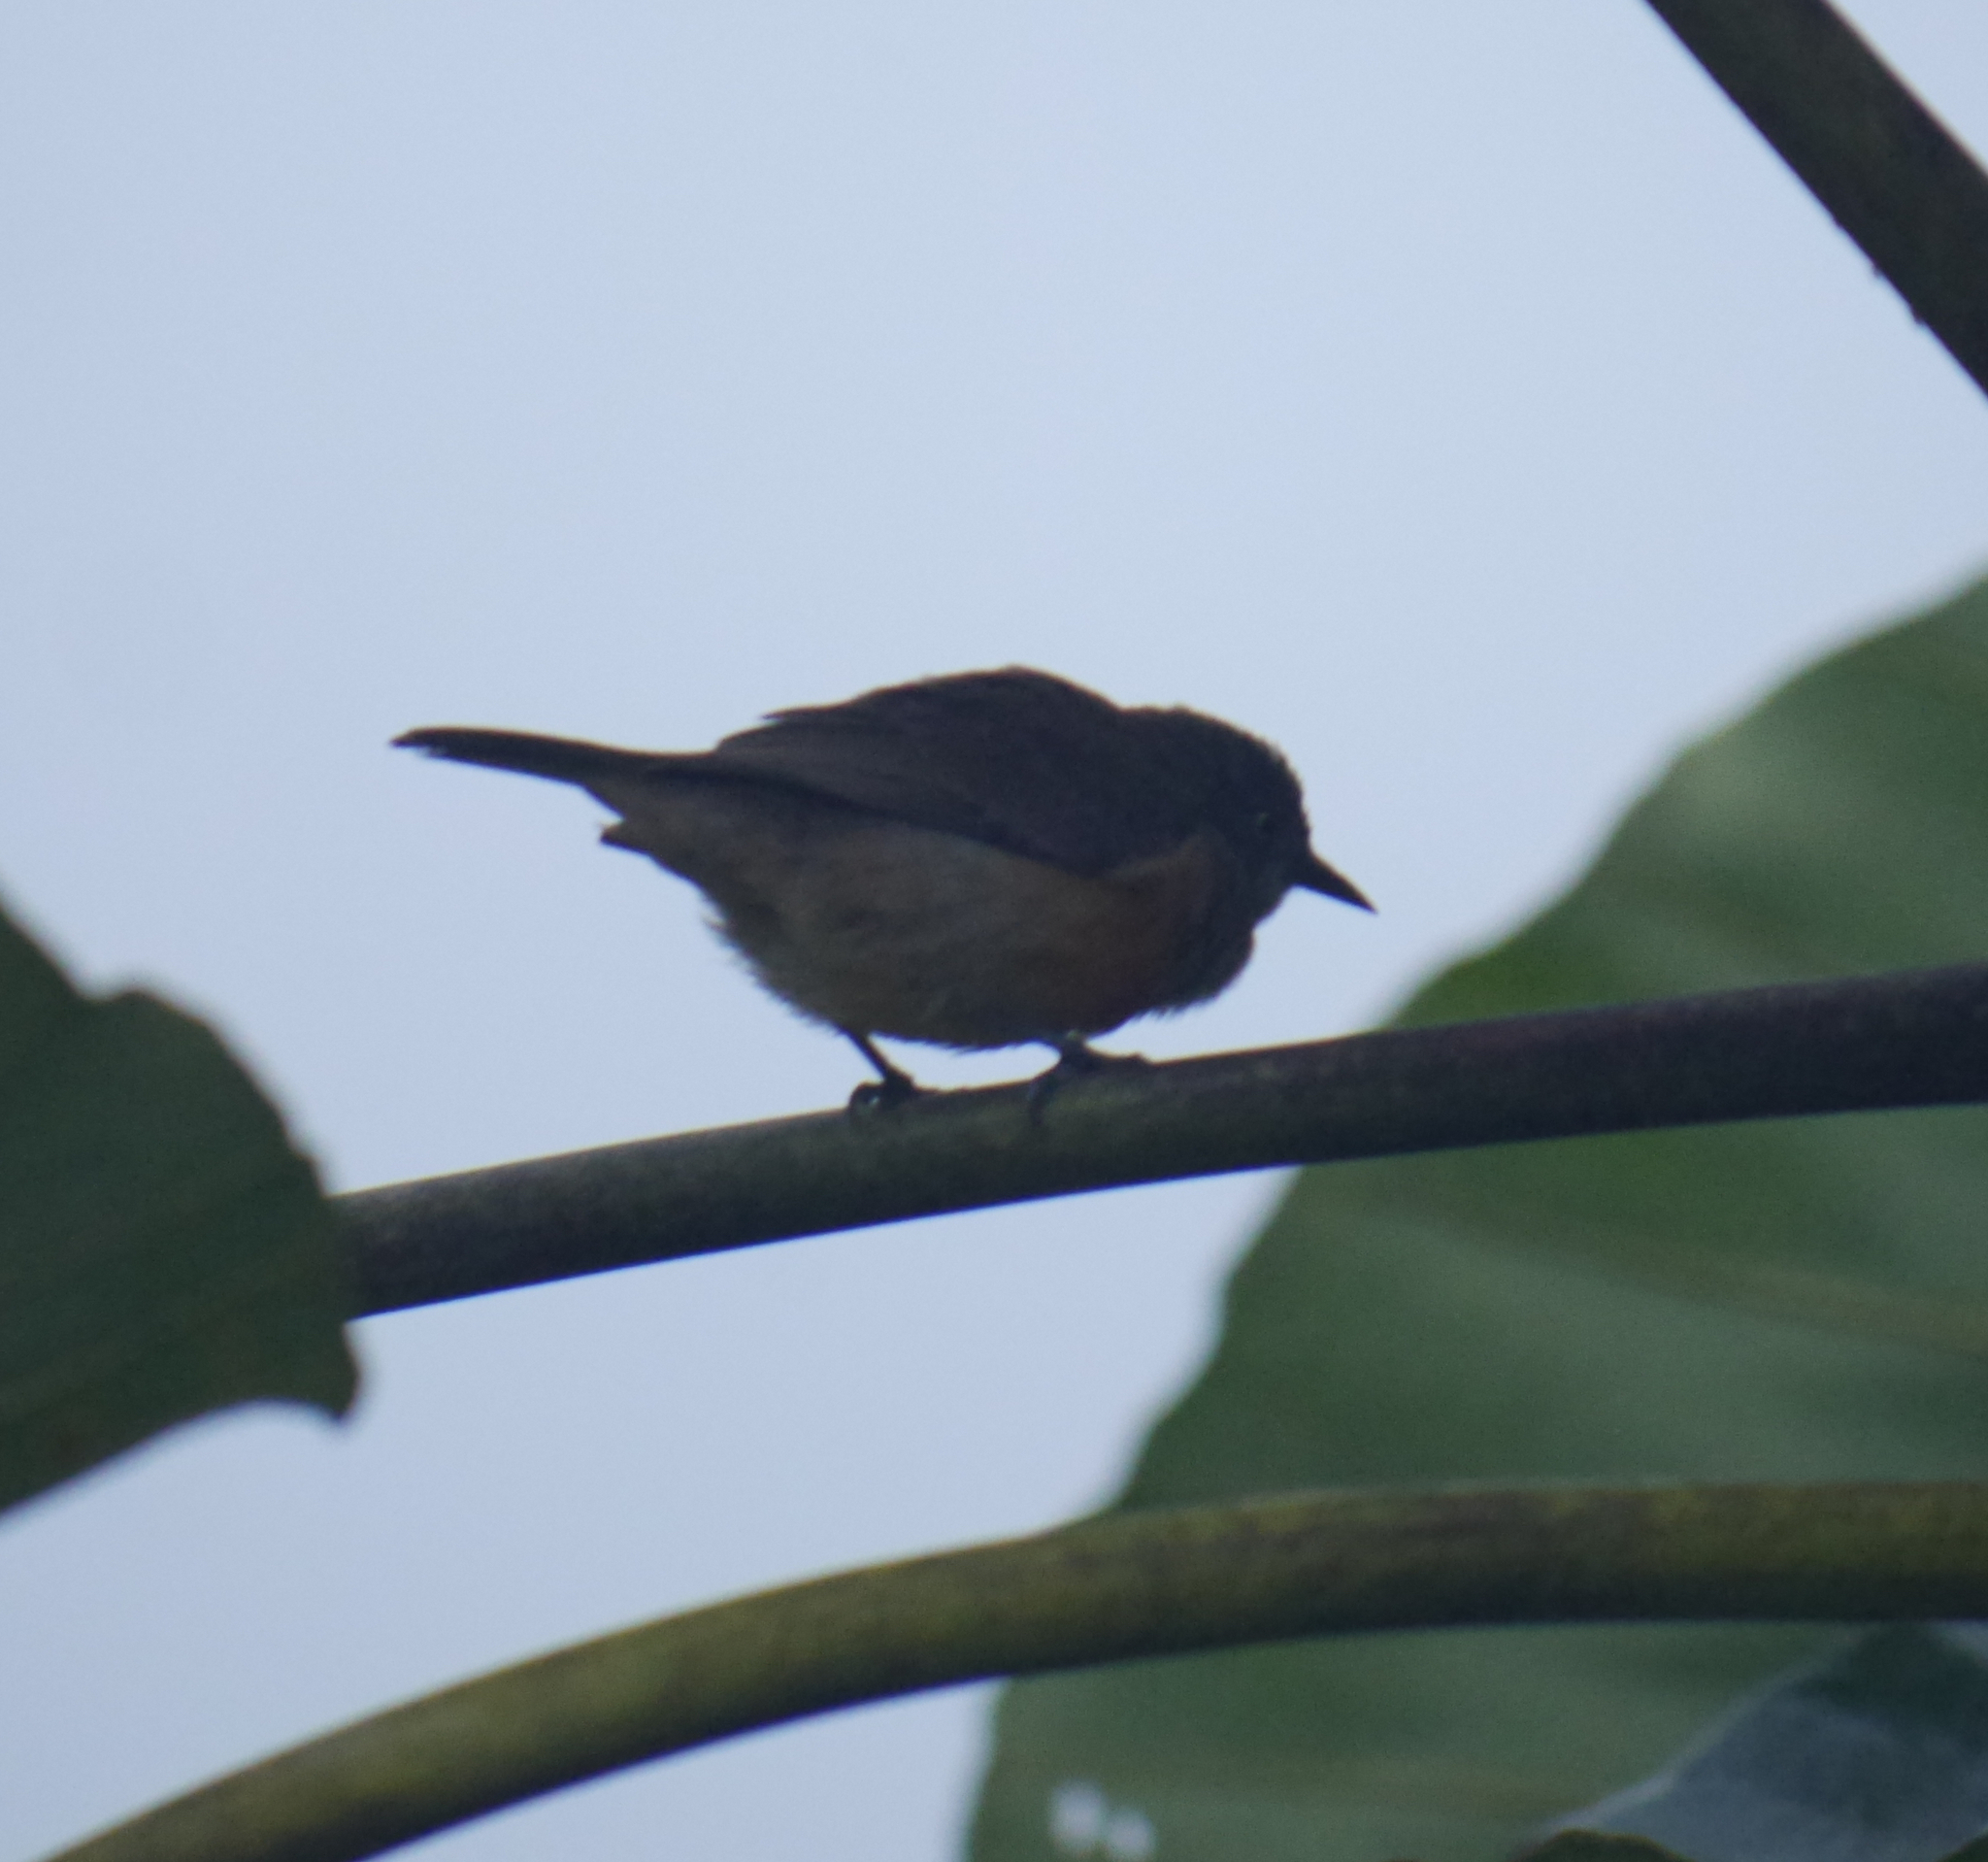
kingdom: Animalia
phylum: Chordata
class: Aves
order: Passeriformes
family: Thraupidae
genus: Dacnis
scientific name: Dacnis berlepschi
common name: Scarlet-breasted dacnis
